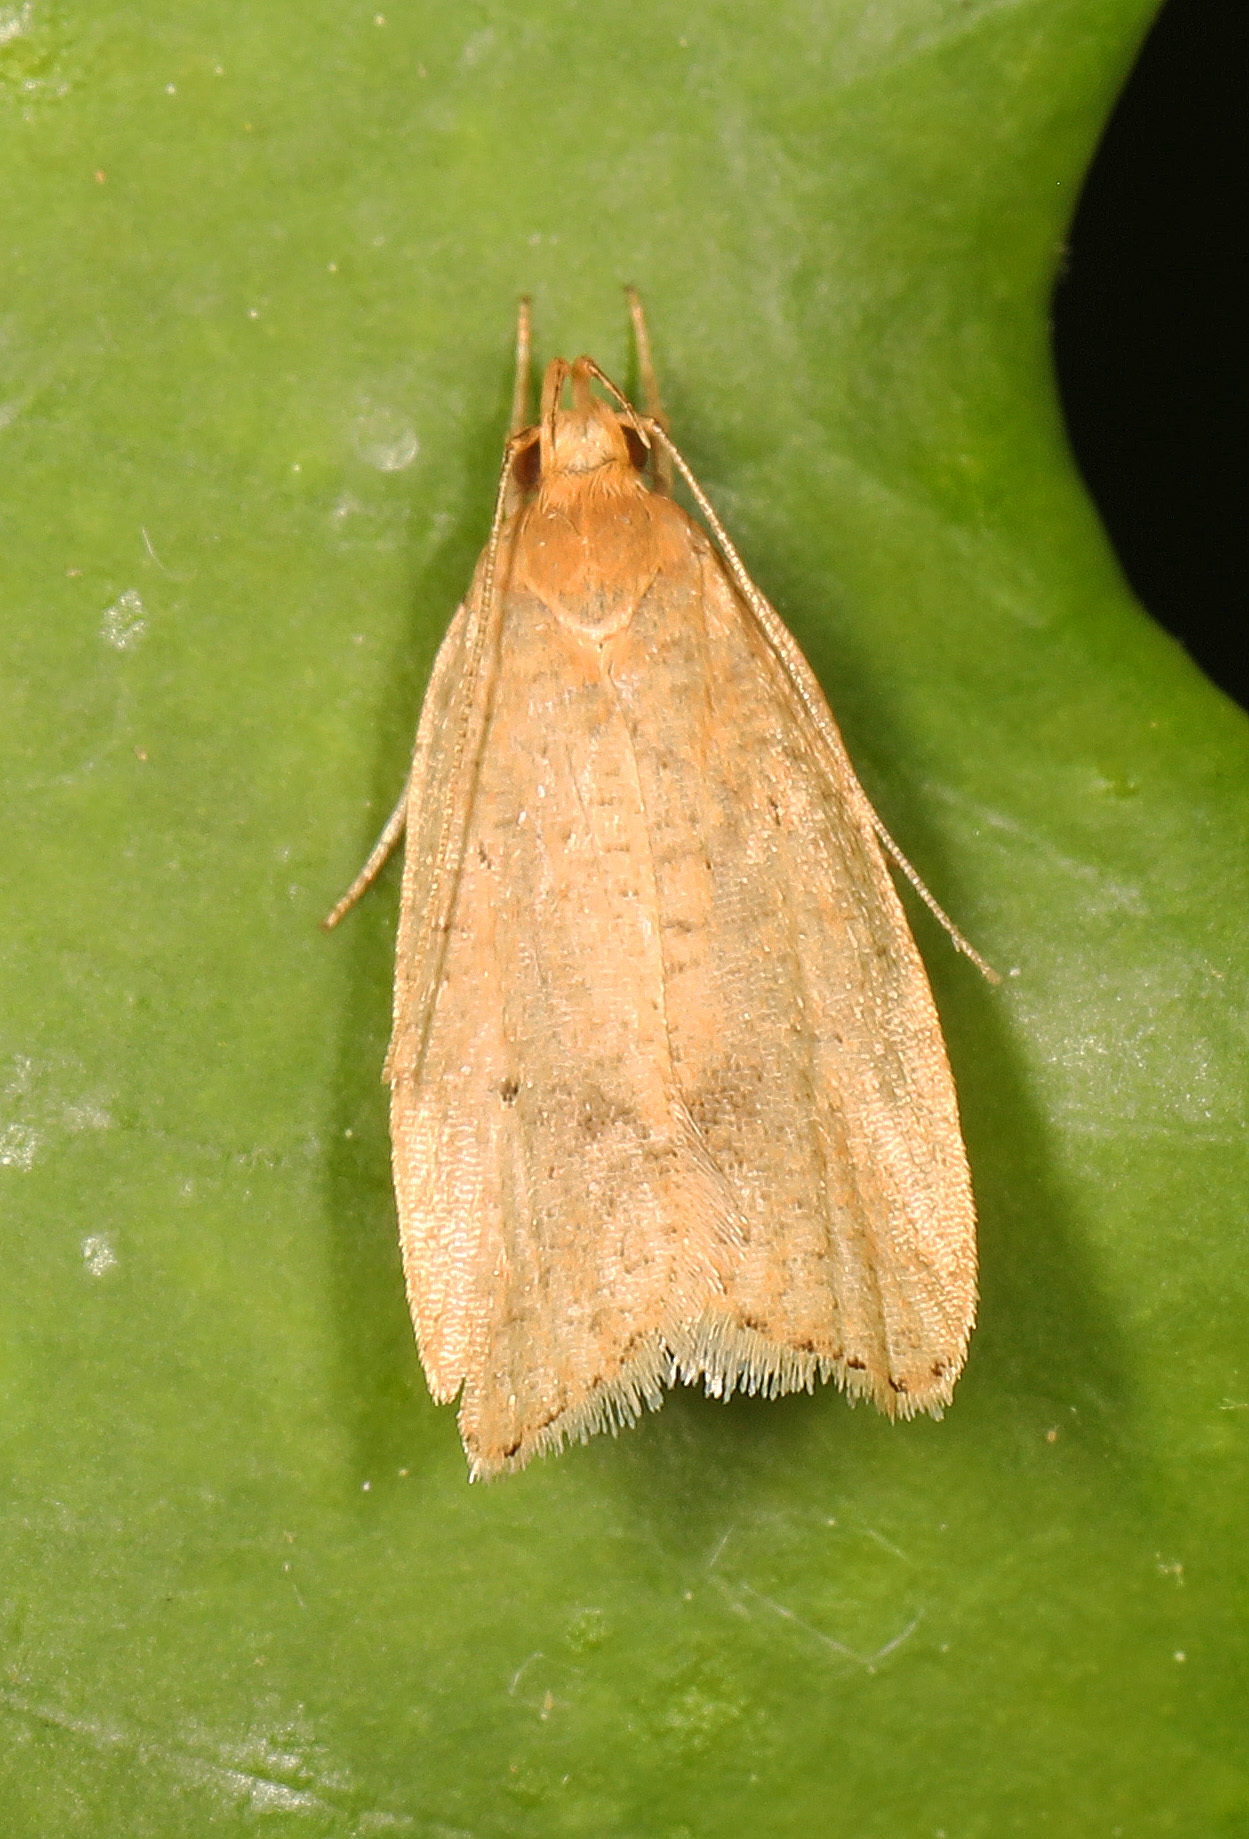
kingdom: Animalia
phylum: Arthropoda
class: Insecta
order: Lepidoptera
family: Depressariidae
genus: Psilocorsis
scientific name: Psilocorsis reflexella
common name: Dotted leaftier moth
